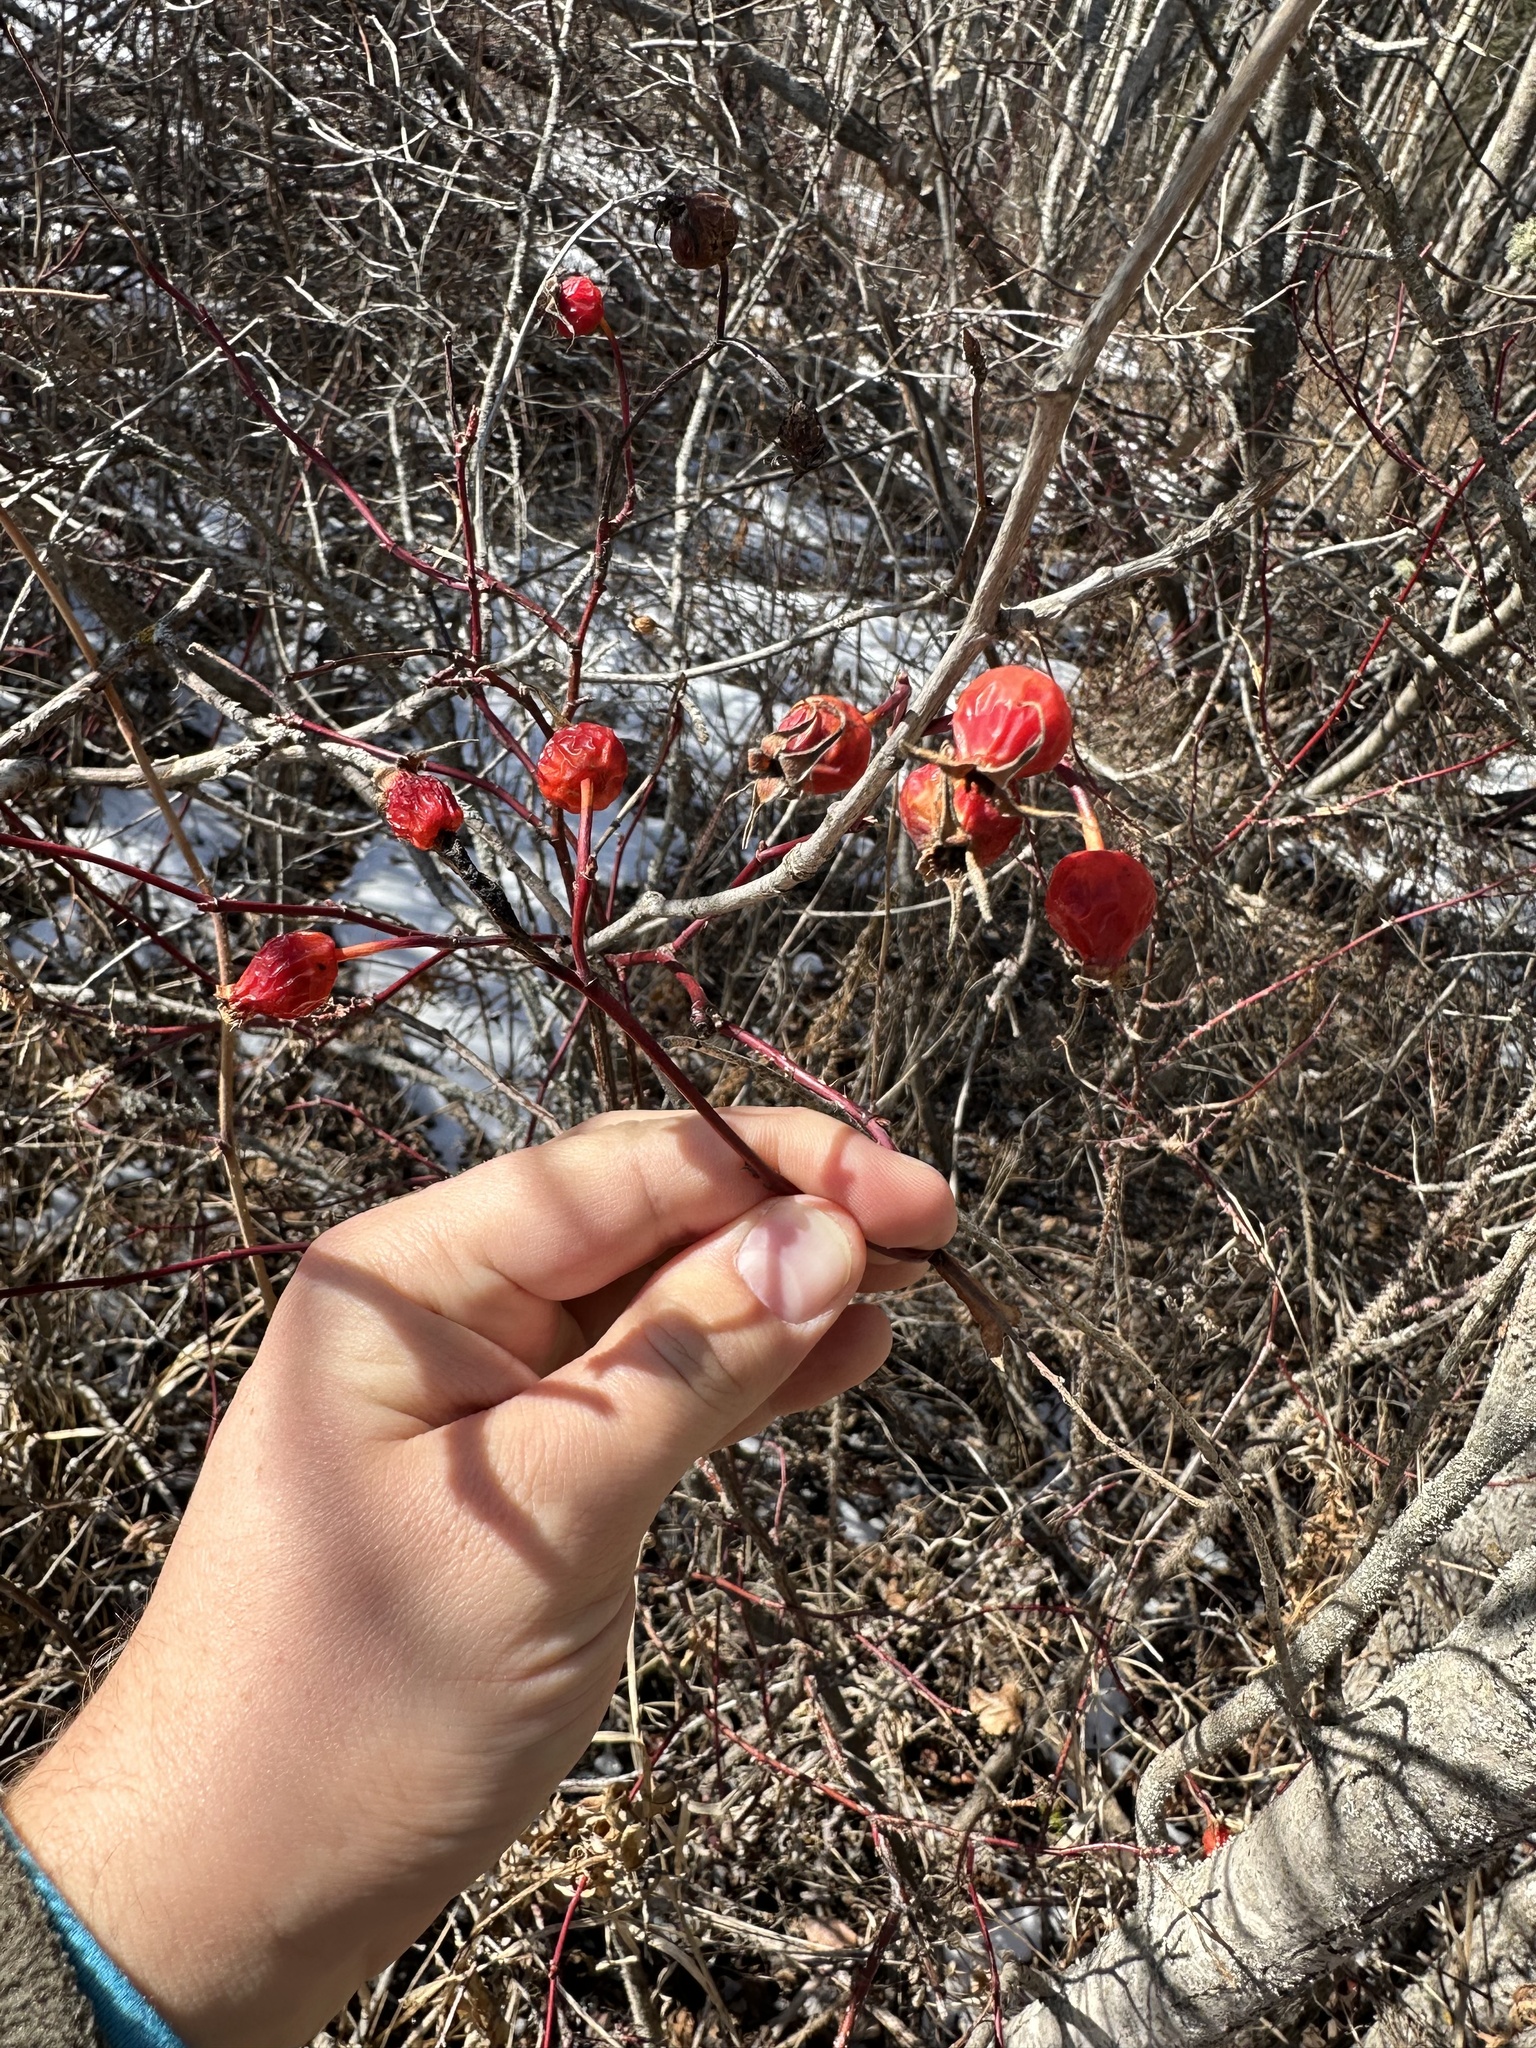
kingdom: Plantae
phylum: Tracheophyta
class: Magnoliopsida
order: Rosales
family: Rosaceae
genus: Rosa
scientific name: Rosa woodsii
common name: Woods's rose
